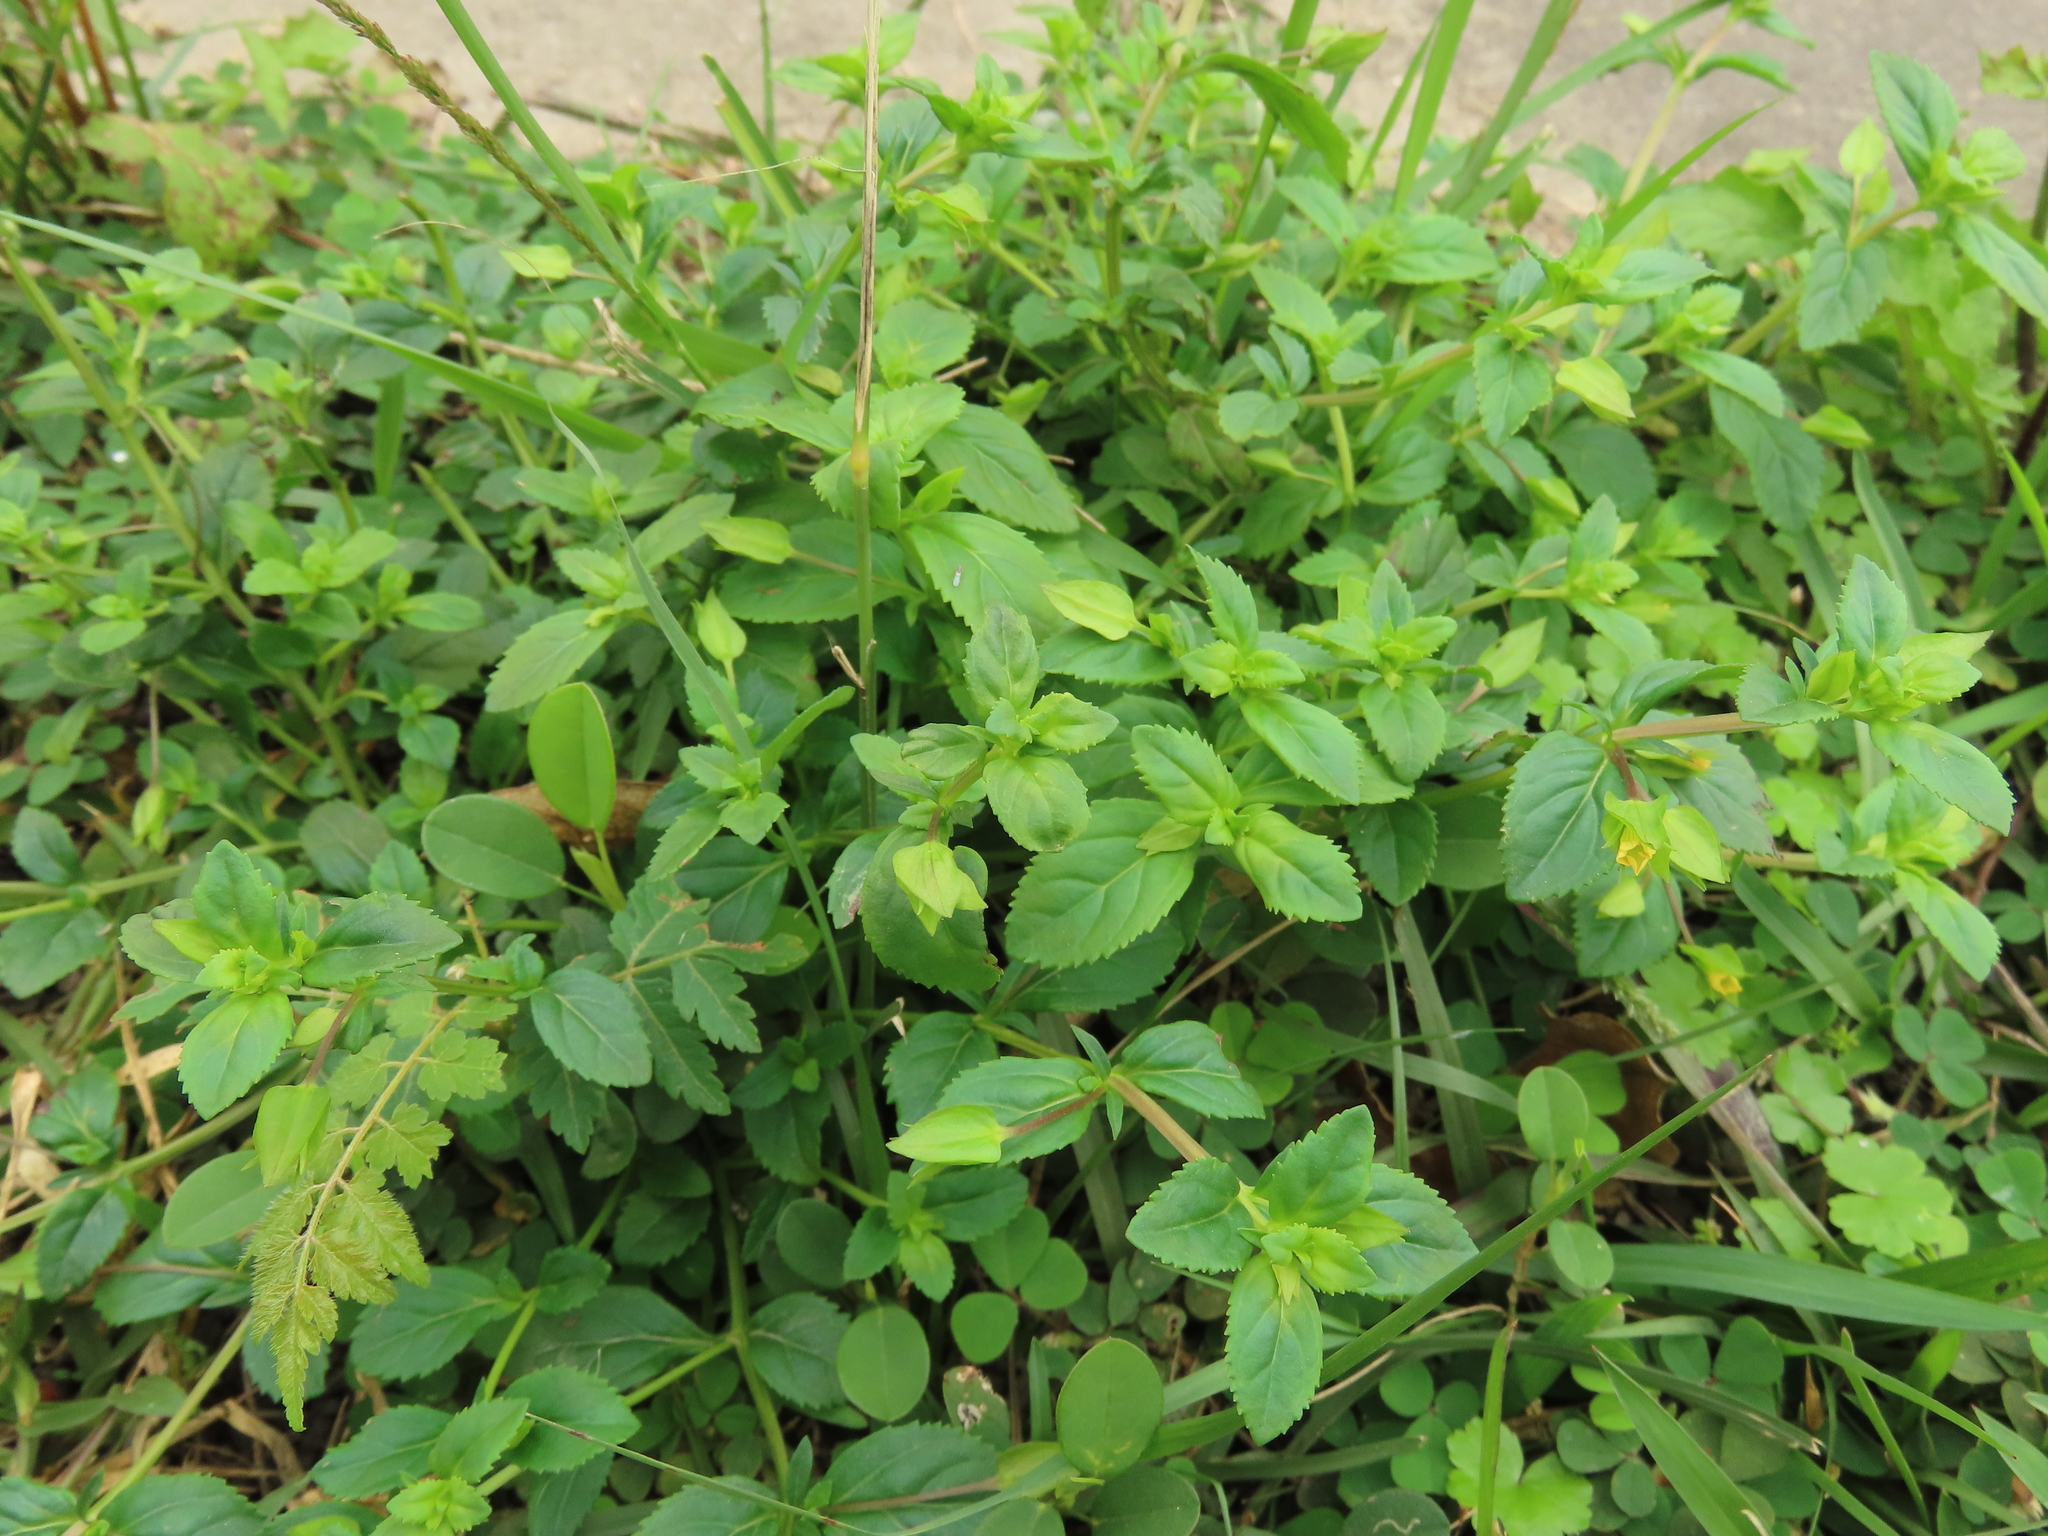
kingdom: Plantae
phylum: Tracheophyta
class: Magnoliopsida
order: Lamiales
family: Plantaginaceae
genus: Mecardonia
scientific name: Mecardonia procumbens
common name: Baby jump-up
